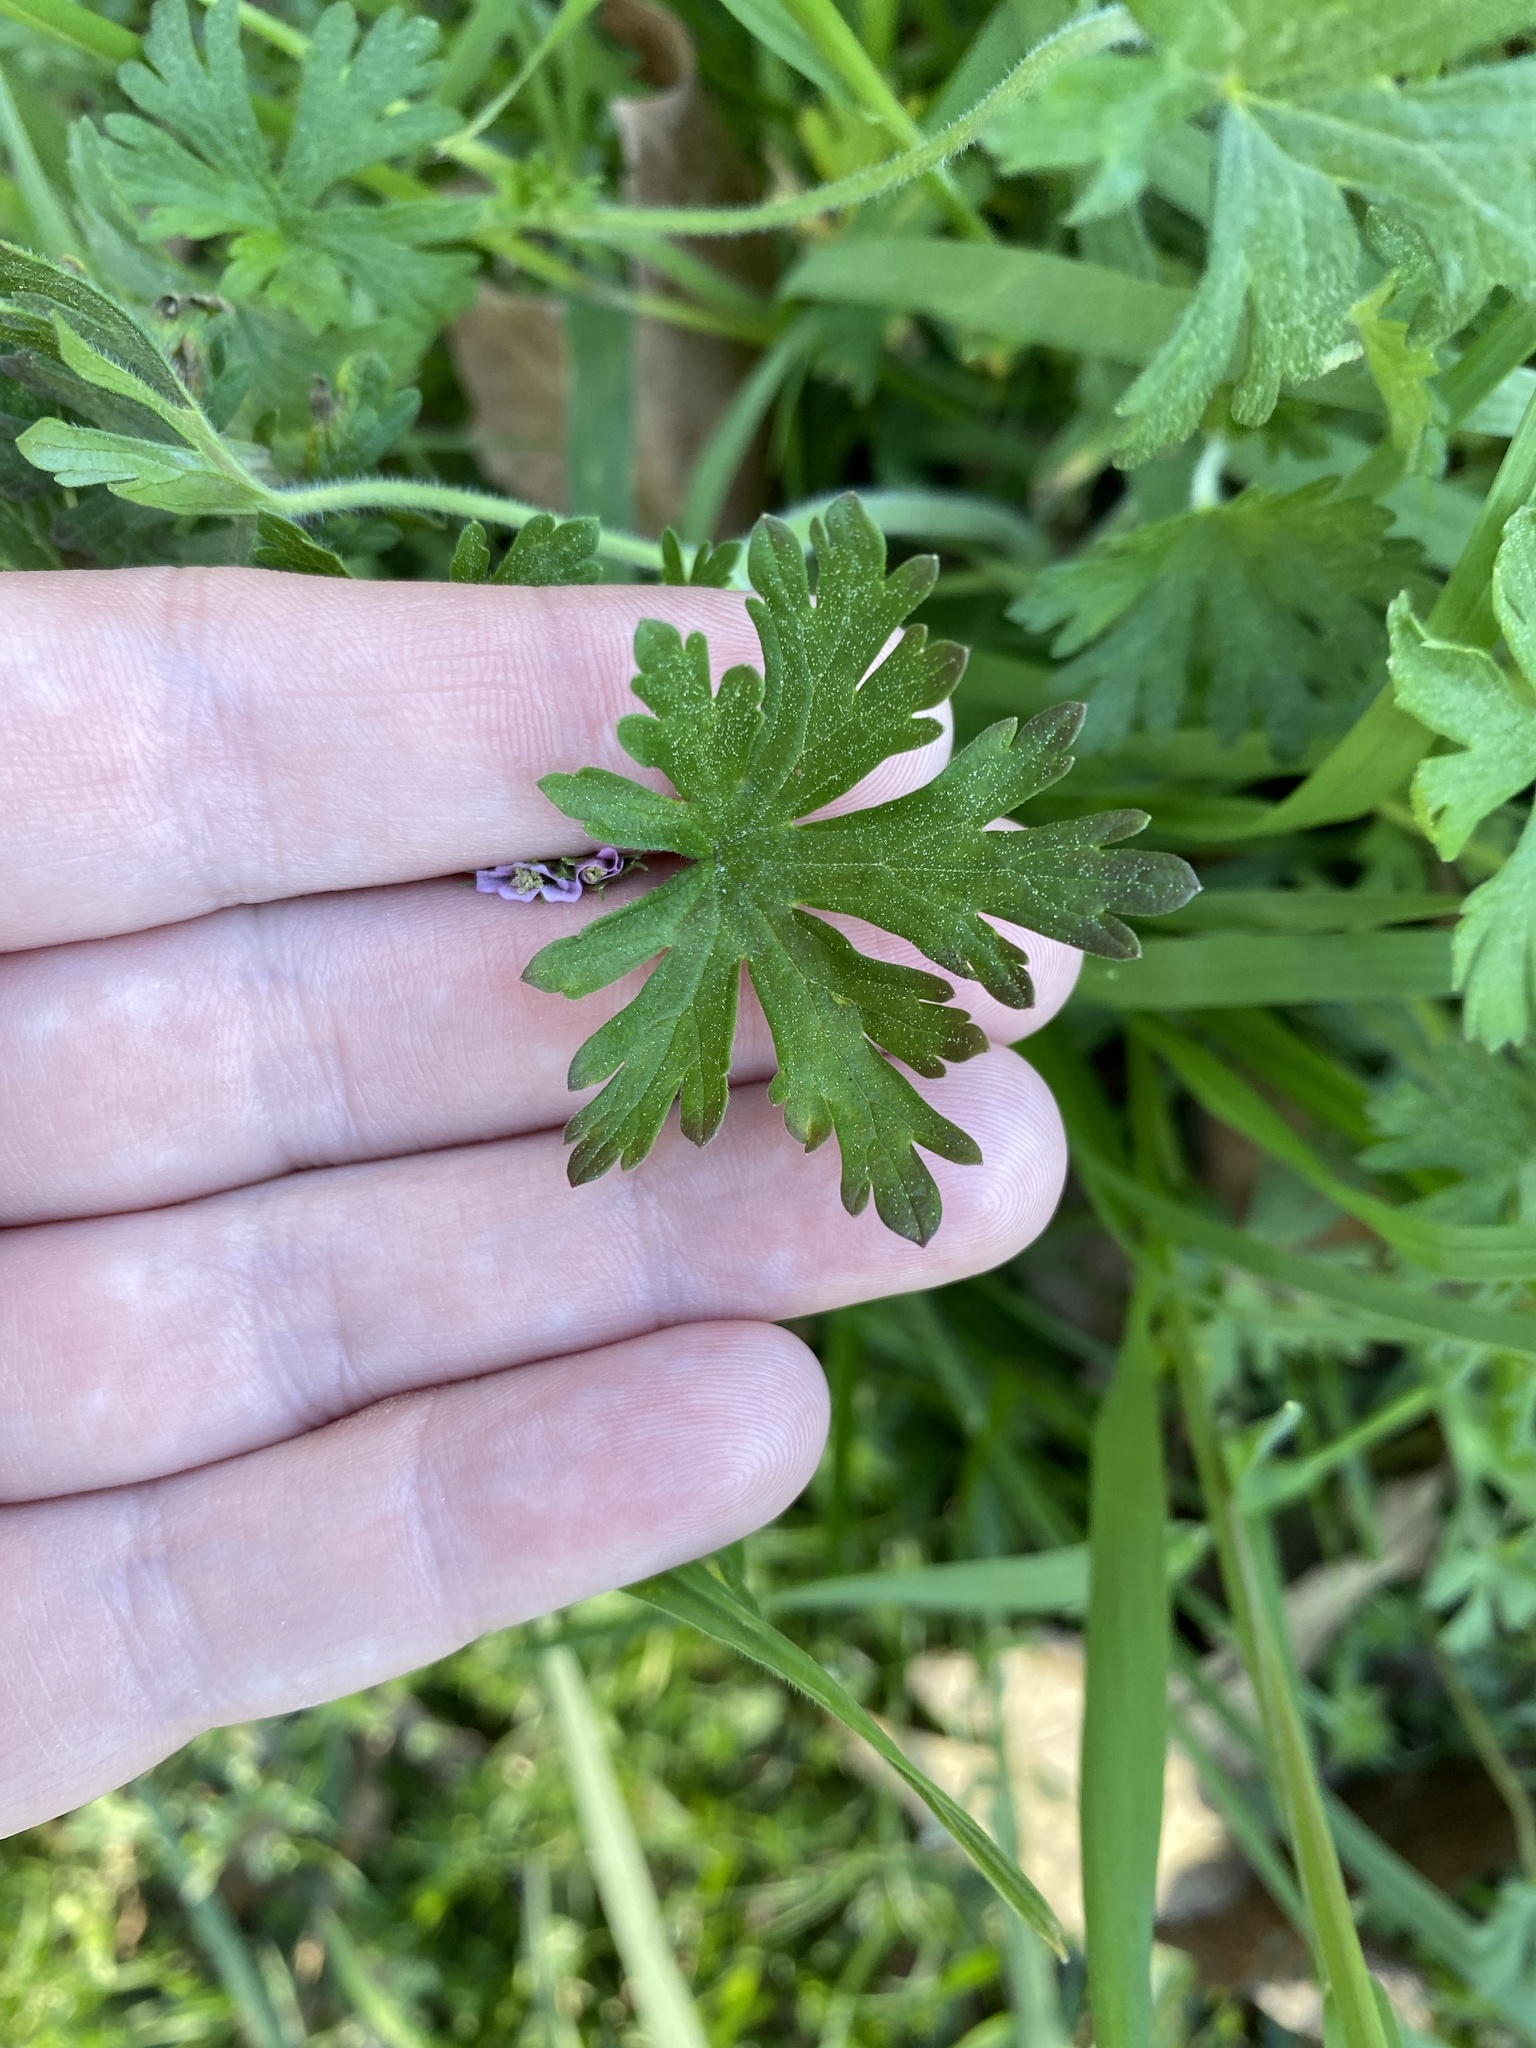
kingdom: Plantae
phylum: Tracheophyta
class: Magnoliopsida
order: Geraniales
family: Geraniaceae
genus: Geranium
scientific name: Geranium carolinianum
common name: Carolina crane's-bill
